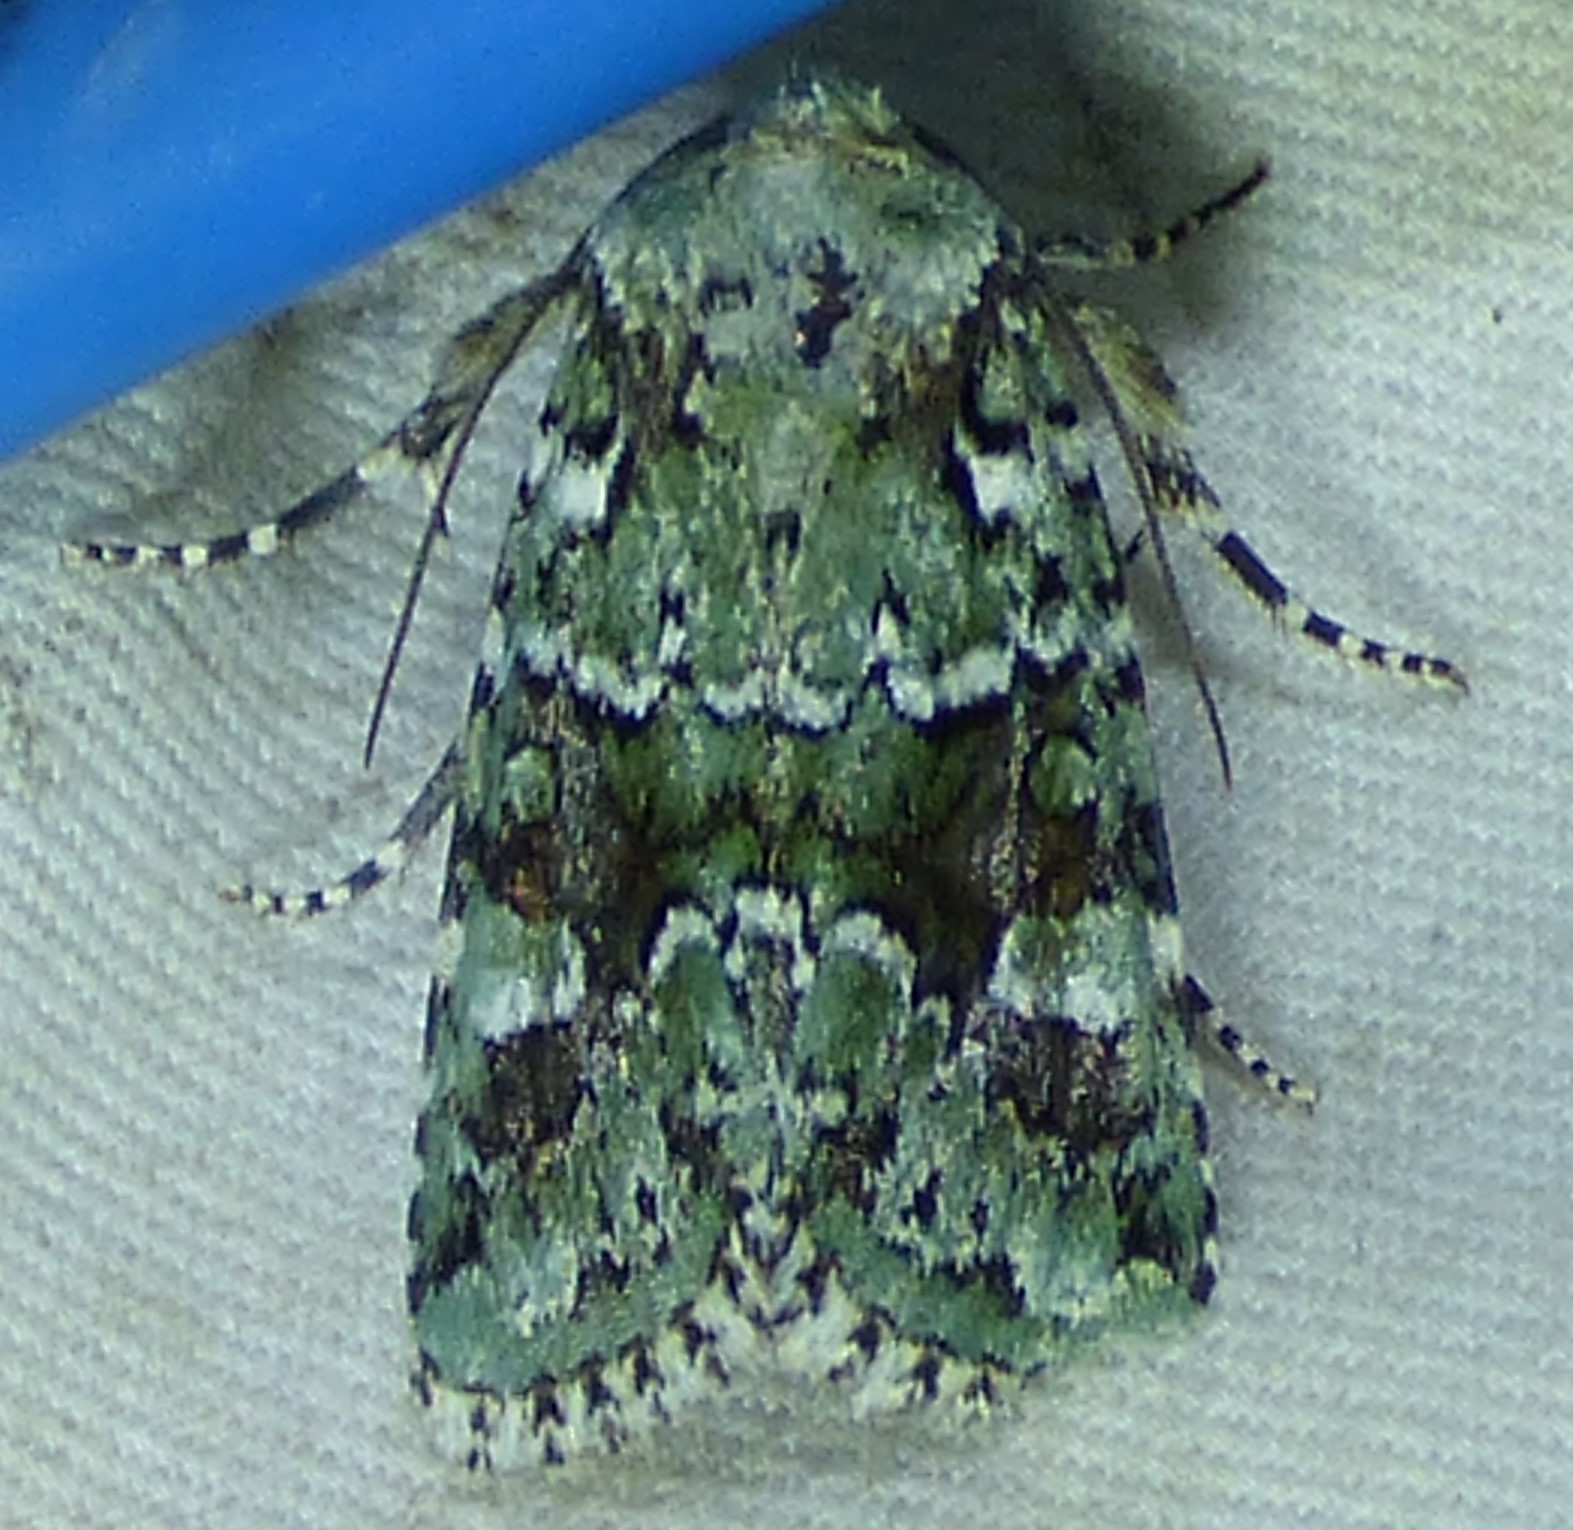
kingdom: Animalia
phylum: Arthropoda
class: Insecta
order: Lepidoptera
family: Noctuidae
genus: Lacinipolia
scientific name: Lacinipolia laudabilis
